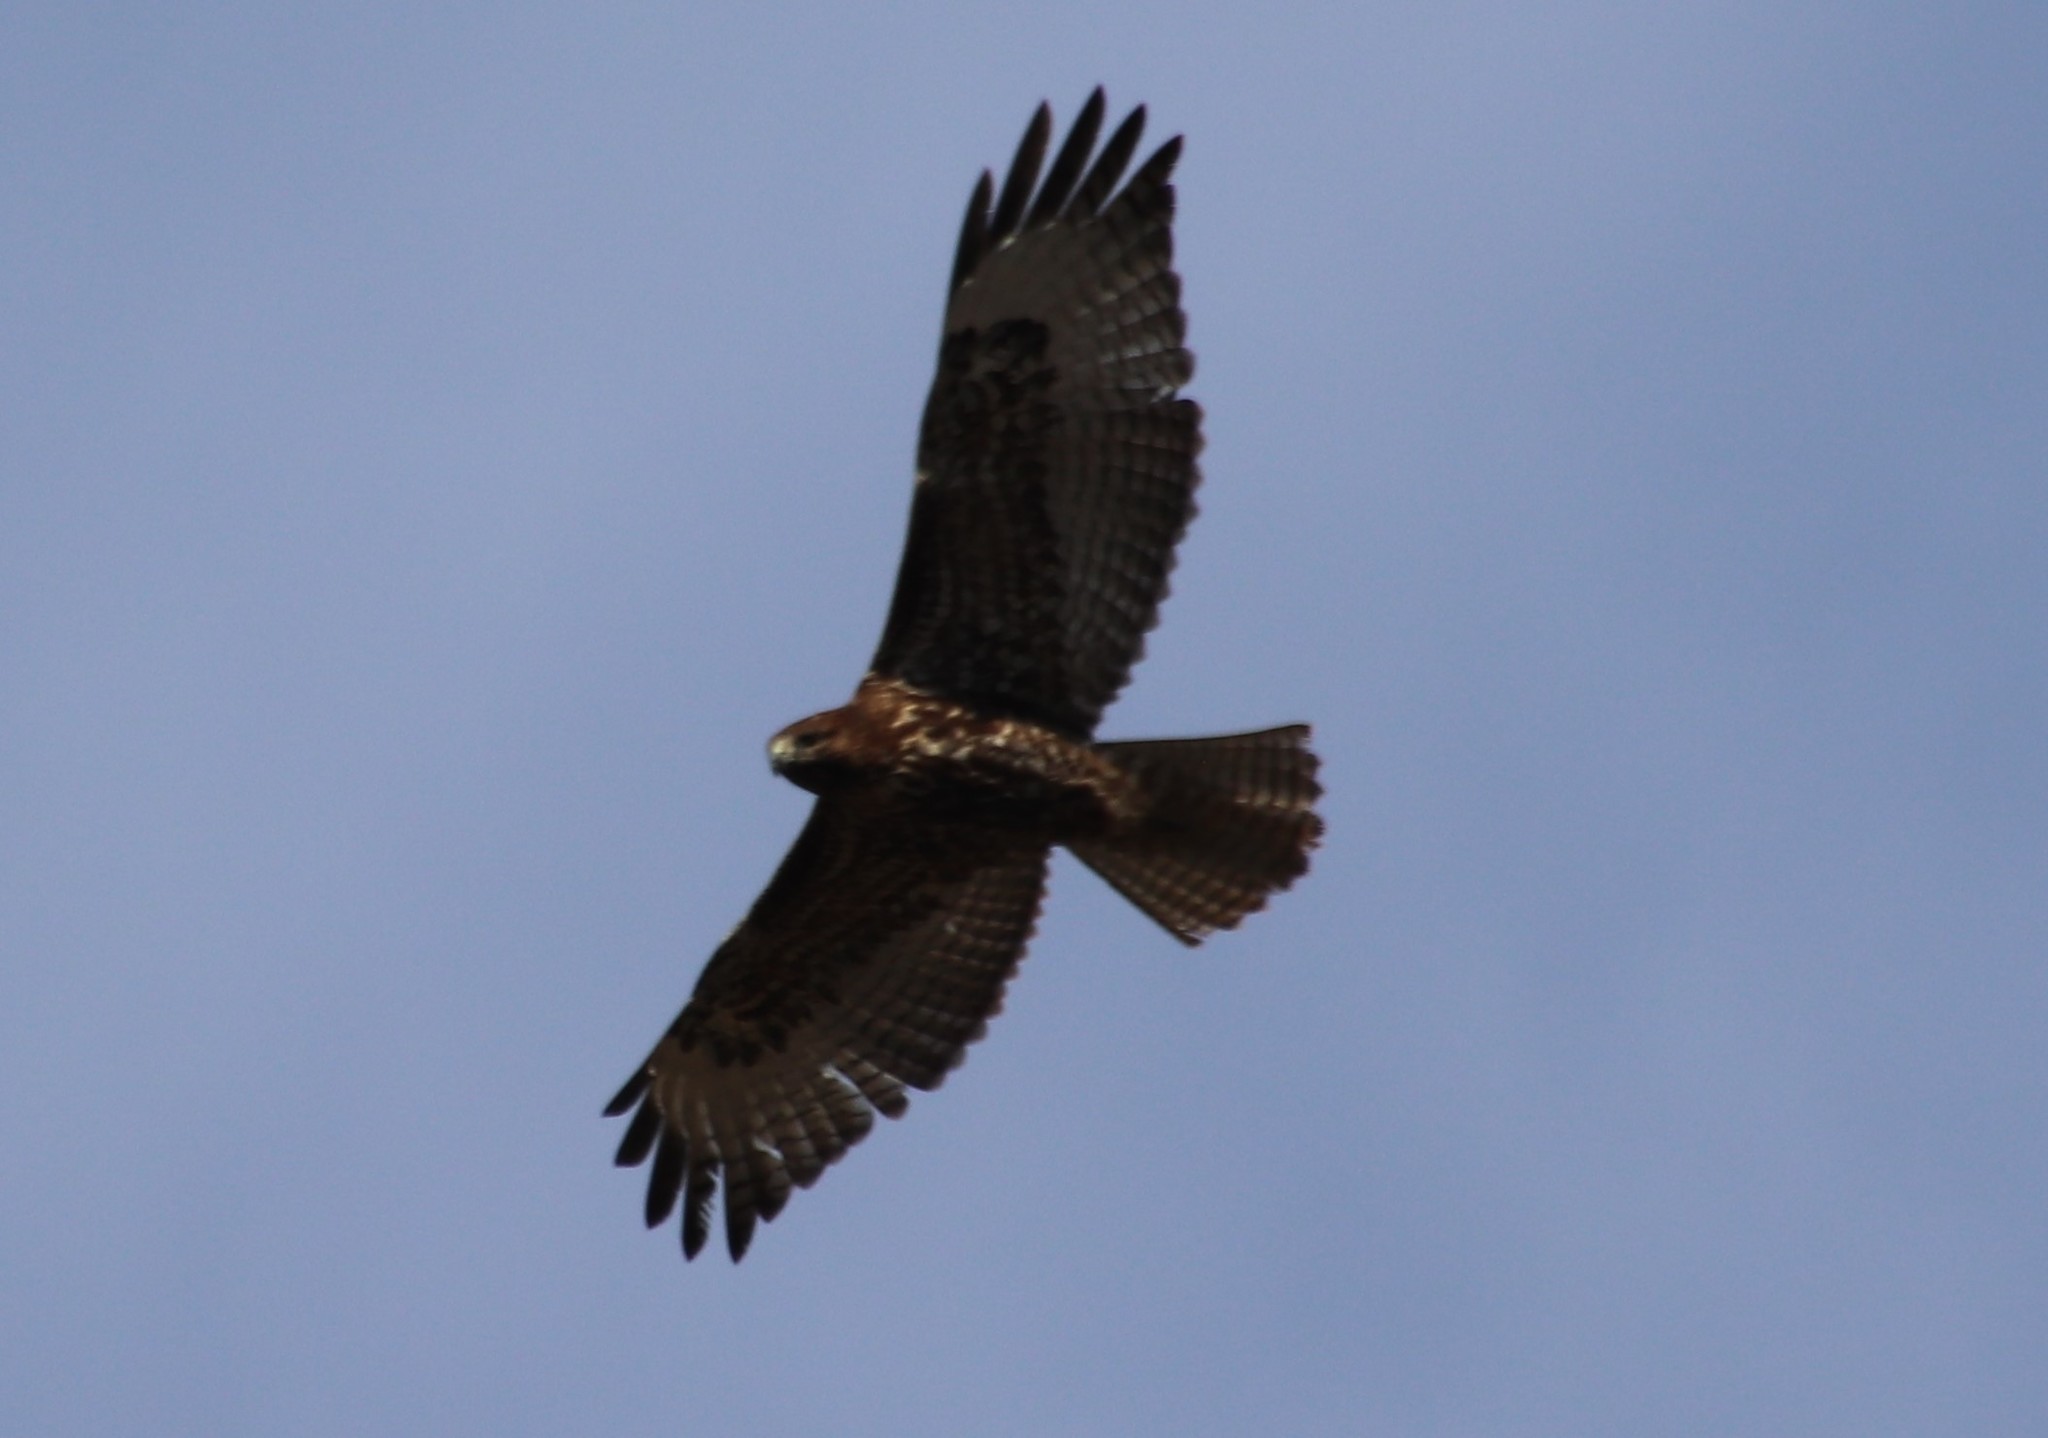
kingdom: Animalia
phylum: Chordata
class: Aves
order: Accipitriformes
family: Accipitridae
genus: Buteo
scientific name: Buteo jamaicensis
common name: Red-tailed hawk
